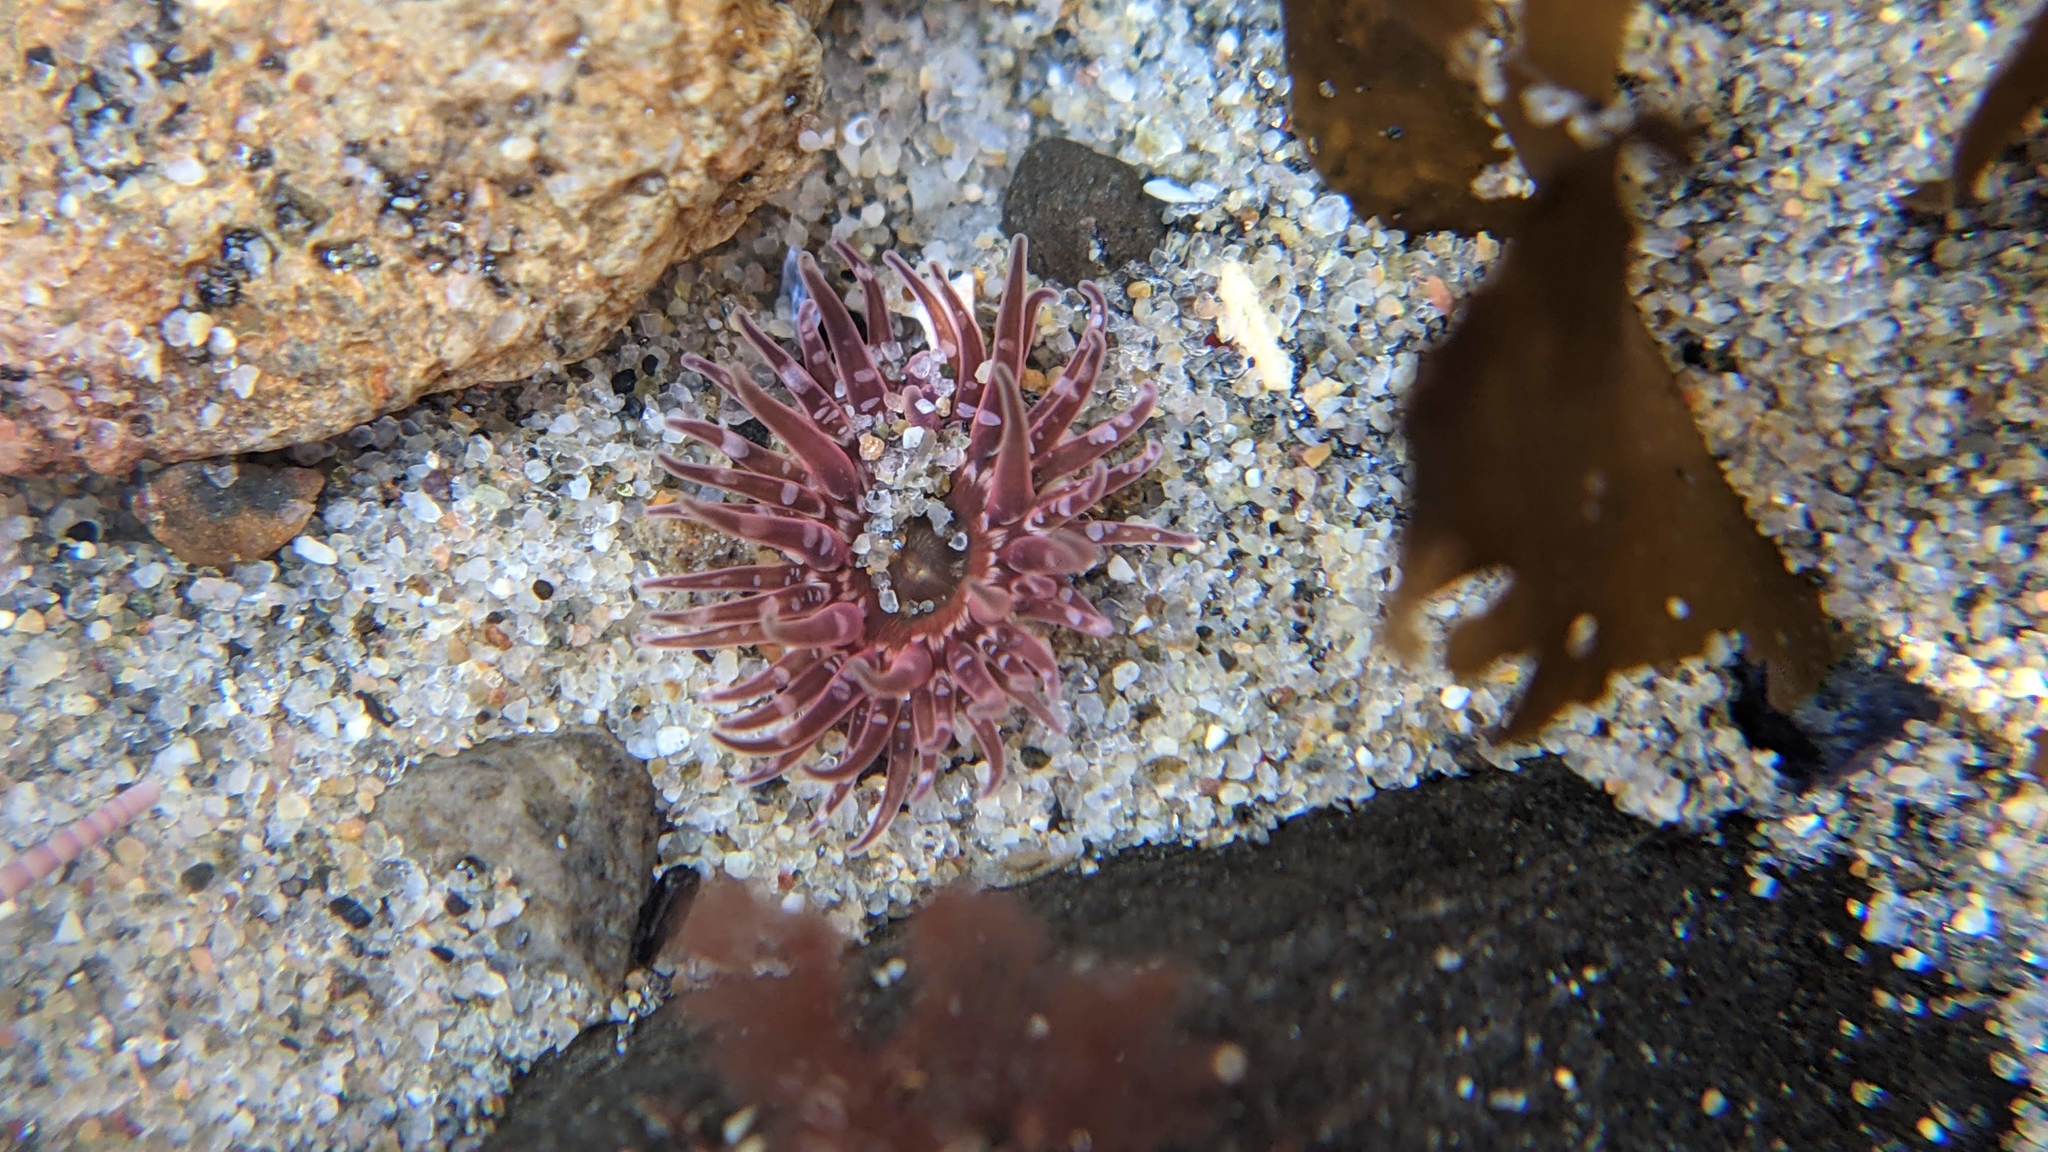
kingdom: Animalia
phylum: Cnidaria
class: Anthozoa
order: Actiniaria
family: Actiniidae
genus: Anthopleura
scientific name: Anthopleura artemisia
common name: Buried sea anemone
